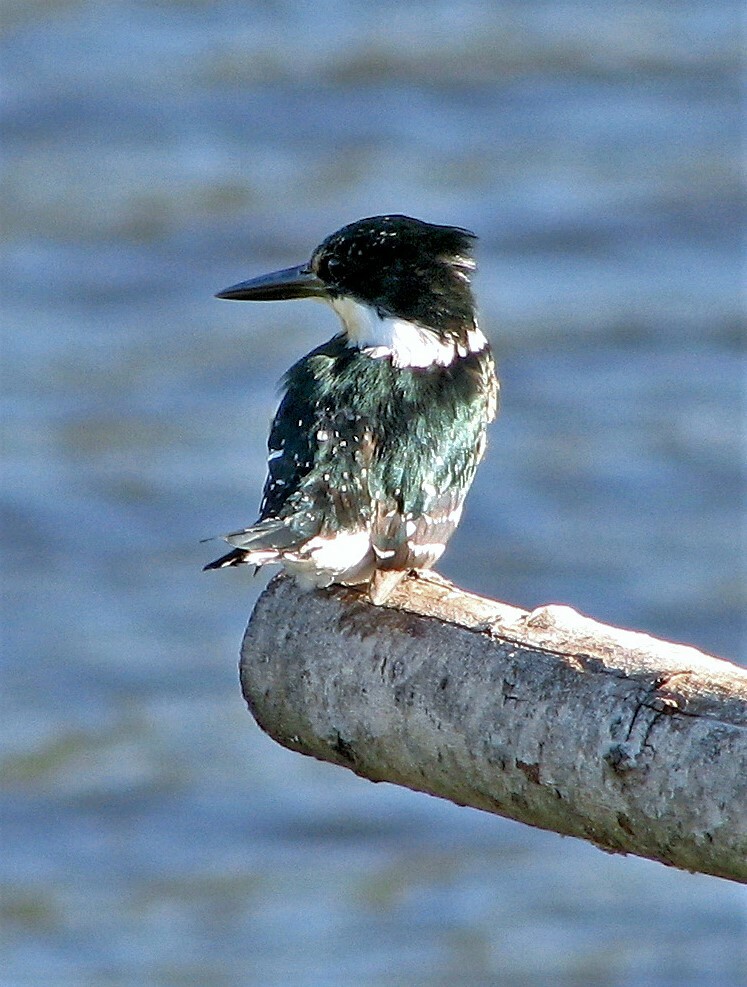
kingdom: Animalia
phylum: Chordata
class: Aves
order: Coraciiformes
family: Alcedinidae
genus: Chloroceryle
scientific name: Chloroceryle americana
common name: Green kingfisher
